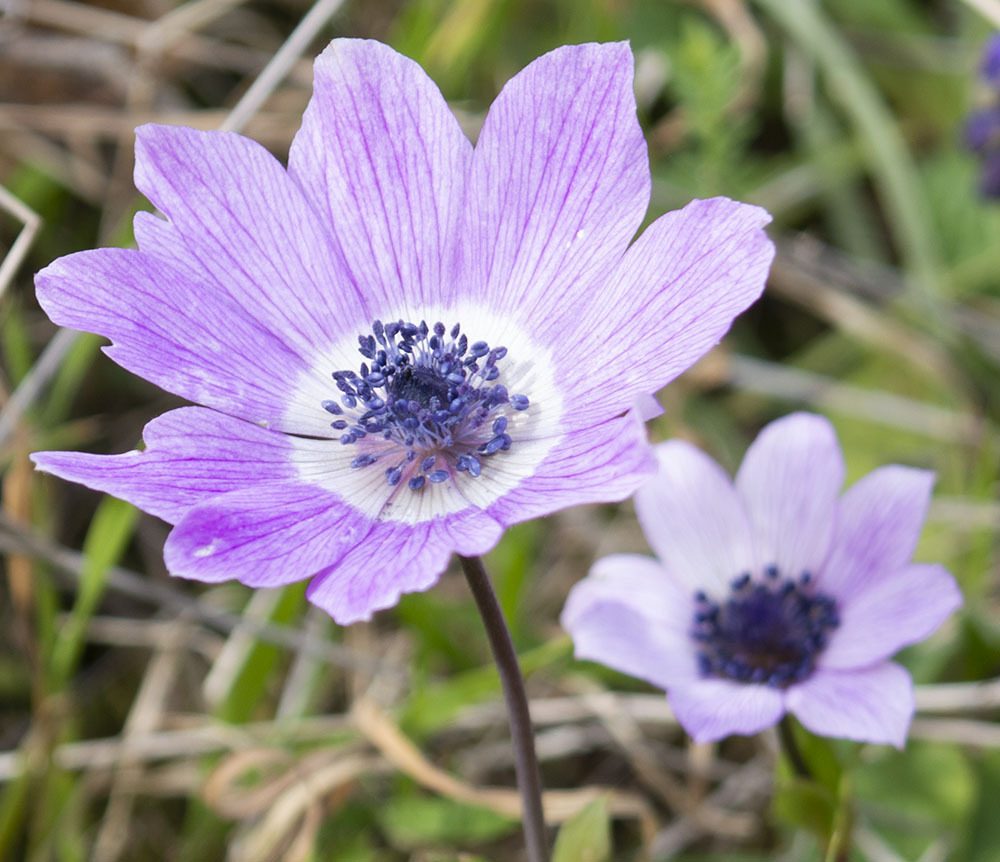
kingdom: Plantae
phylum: Tracheophyta
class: Magnoliopsida
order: Ranunculales
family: Ranunculaceae
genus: Anemone
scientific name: Anemone pavonina
